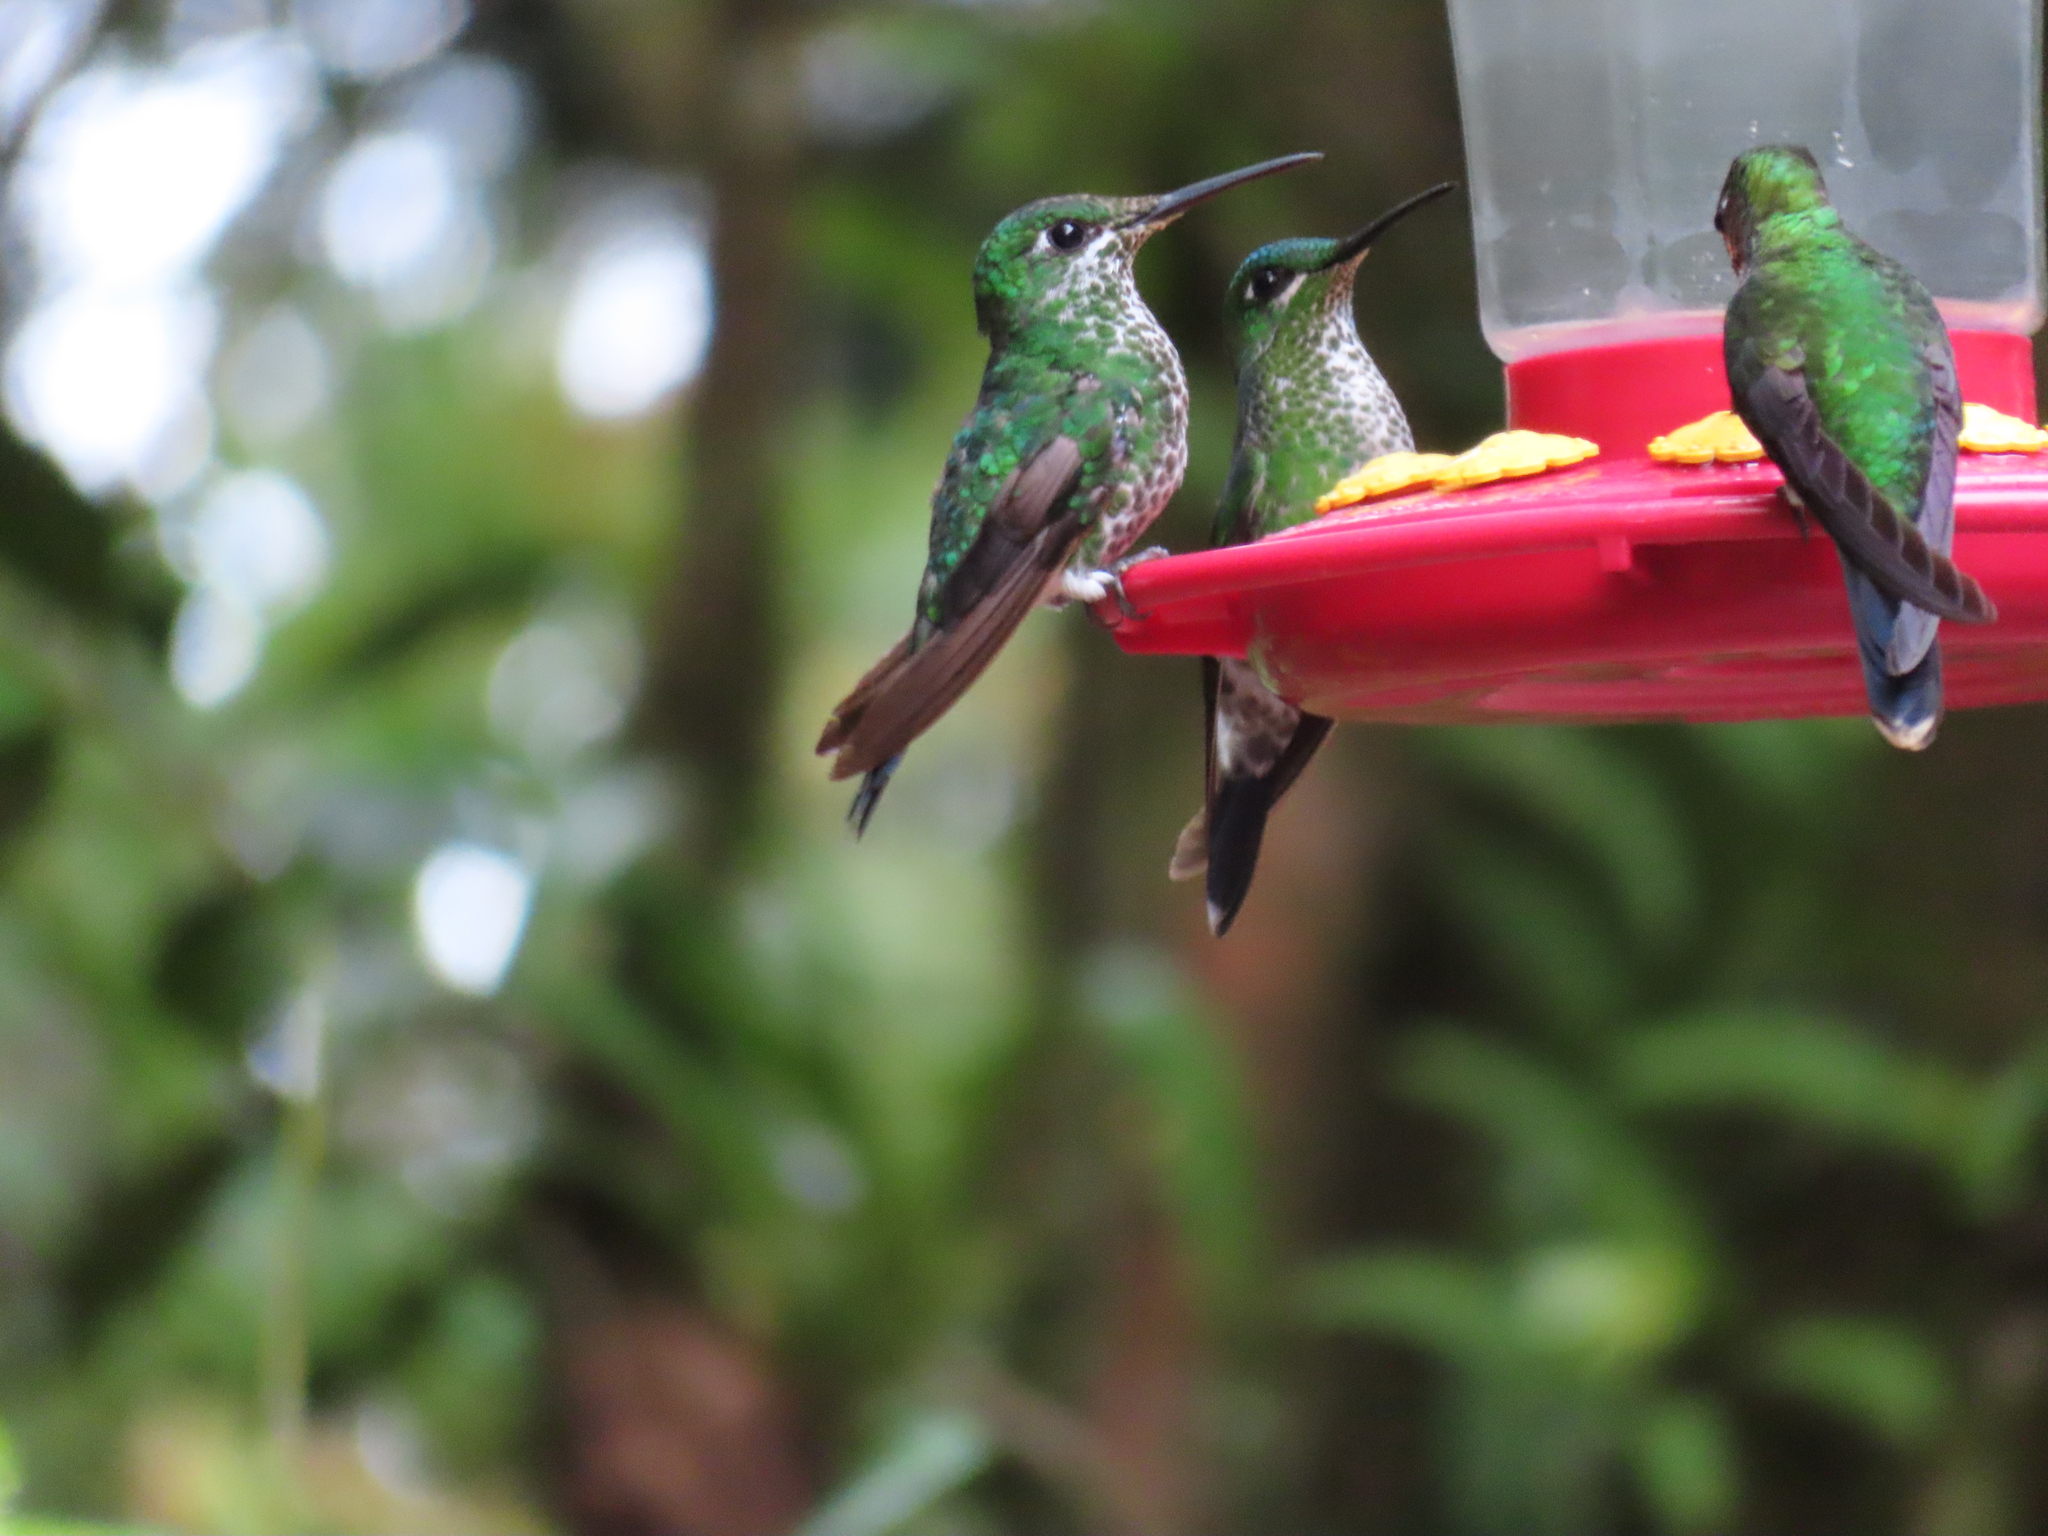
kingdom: Animalia
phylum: Chordata
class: Aves
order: Apodiformes
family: Trochilidae
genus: Heliodoxa
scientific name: Heliodoxa jacula
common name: Green-crowned brilliant
